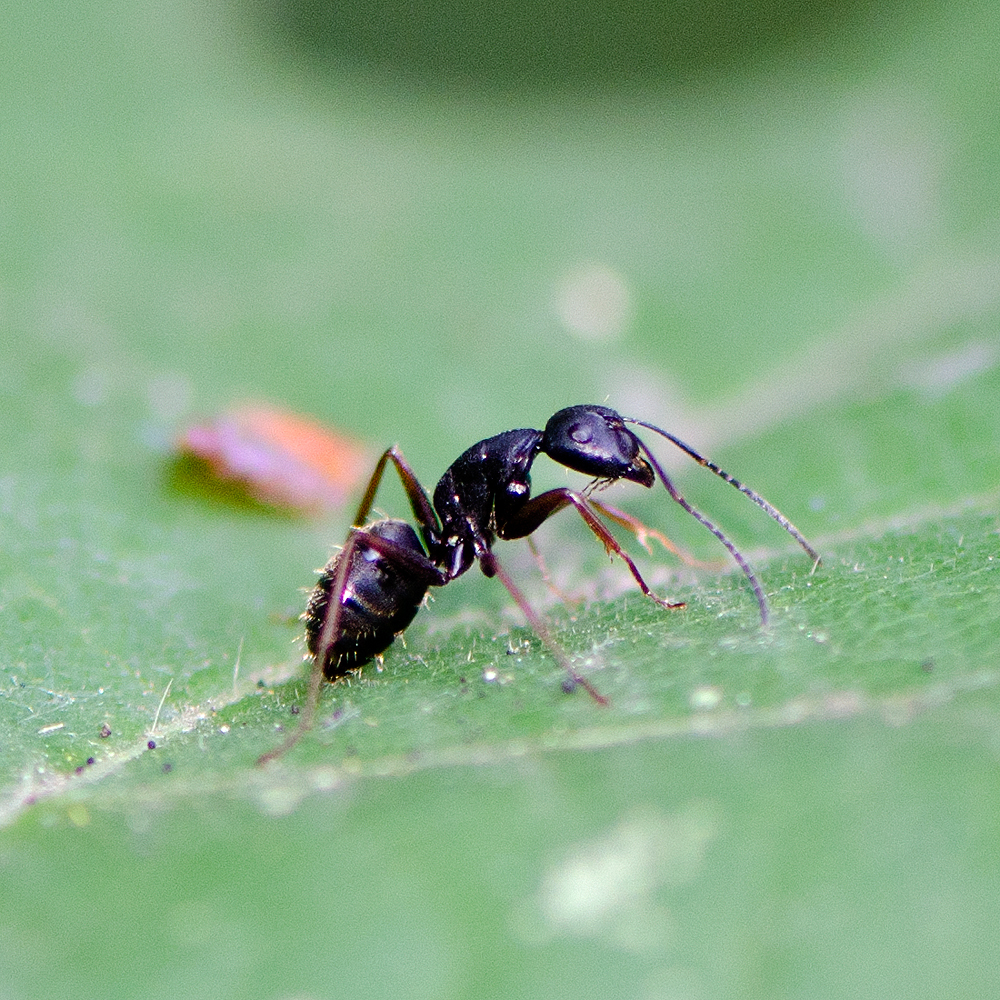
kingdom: Animalia
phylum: Arthropoda
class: Insecta
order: Hymenoptera
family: Formicidae
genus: Camponotus
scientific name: Camponotus modoc
